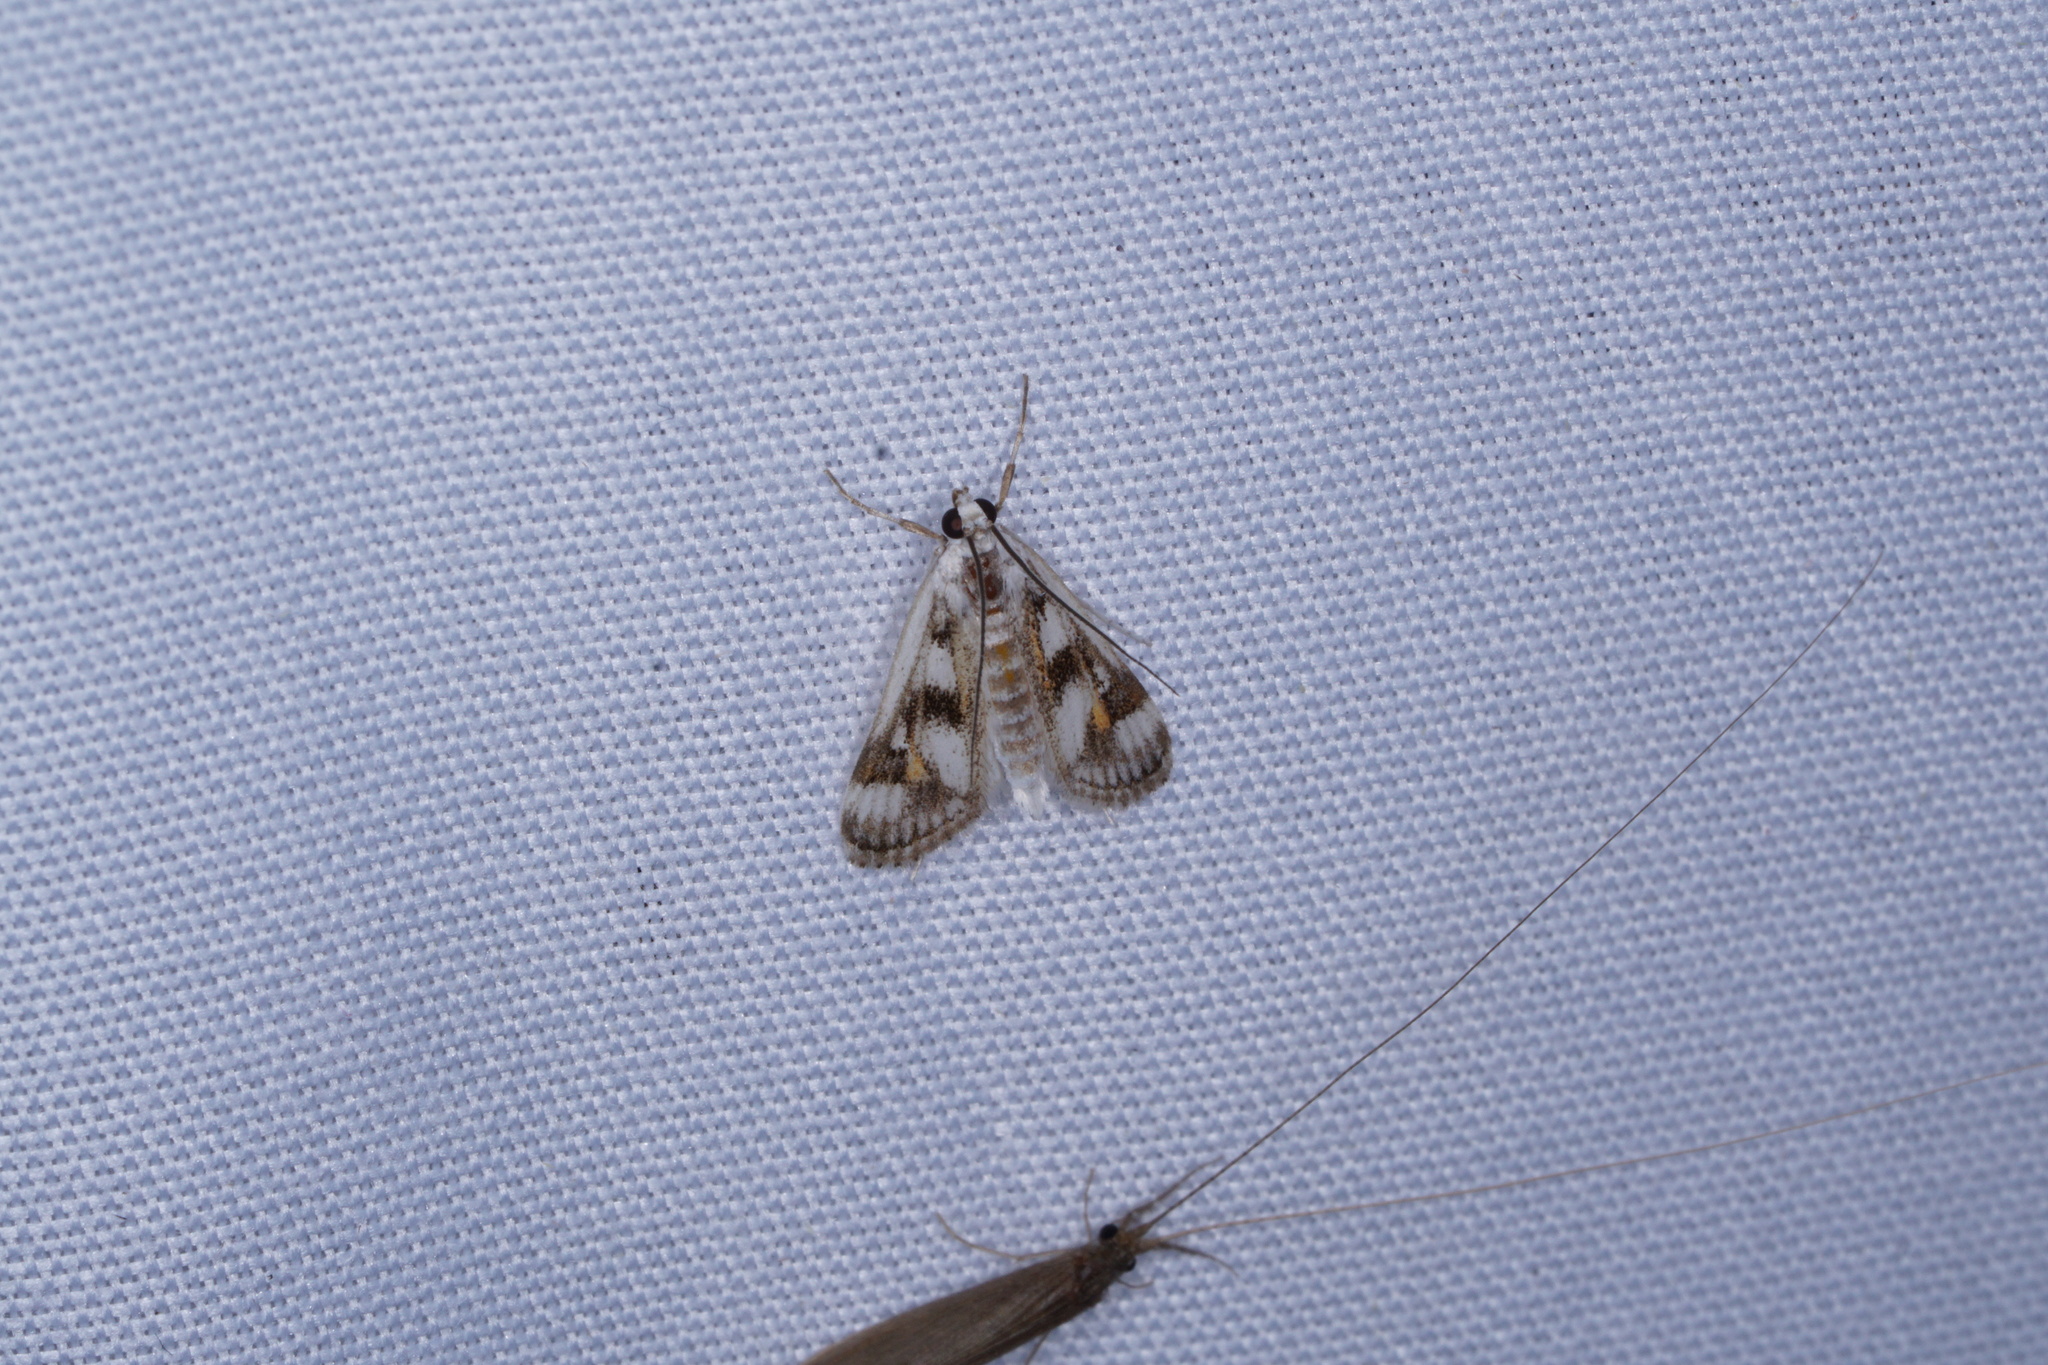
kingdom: Animalia
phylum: Arthropoda
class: Insecta
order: Lepidoptera
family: Crambidae
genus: Parapoynx
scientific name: Parapoynx maculalis
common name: Polymorphic pondweed moth
